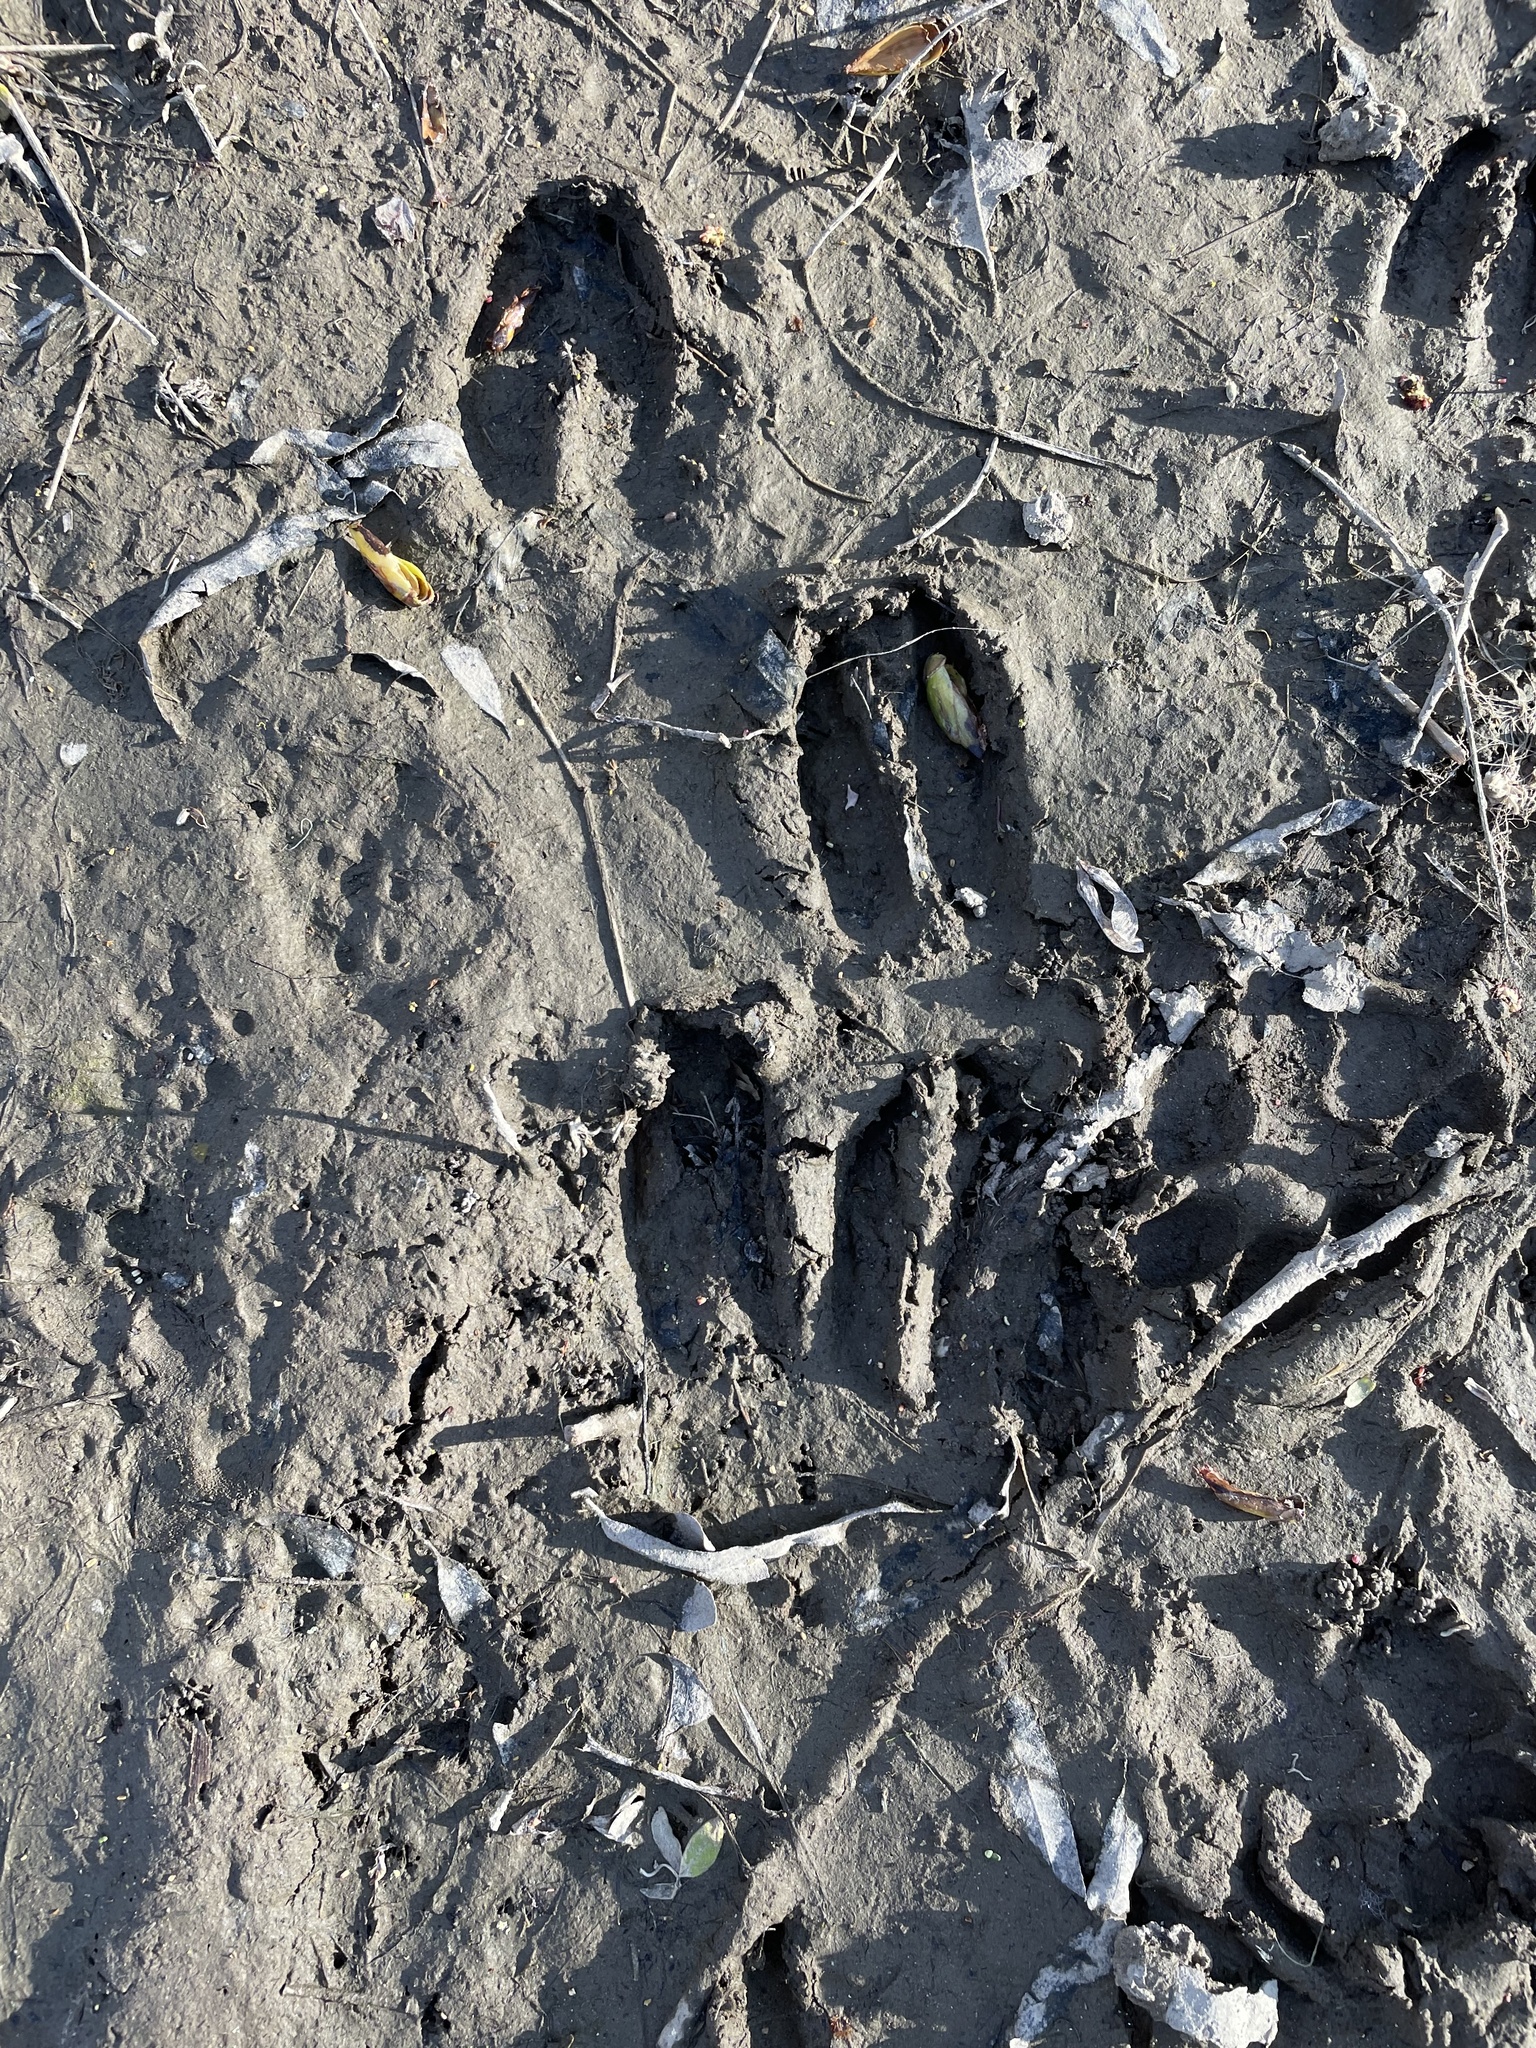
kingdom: Animalia
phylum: Chordata
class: Mammalia
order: Artiodactyla
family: Cervidae
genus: Odocoileus
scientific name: Odocoileus hemionus
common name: Mule deer
